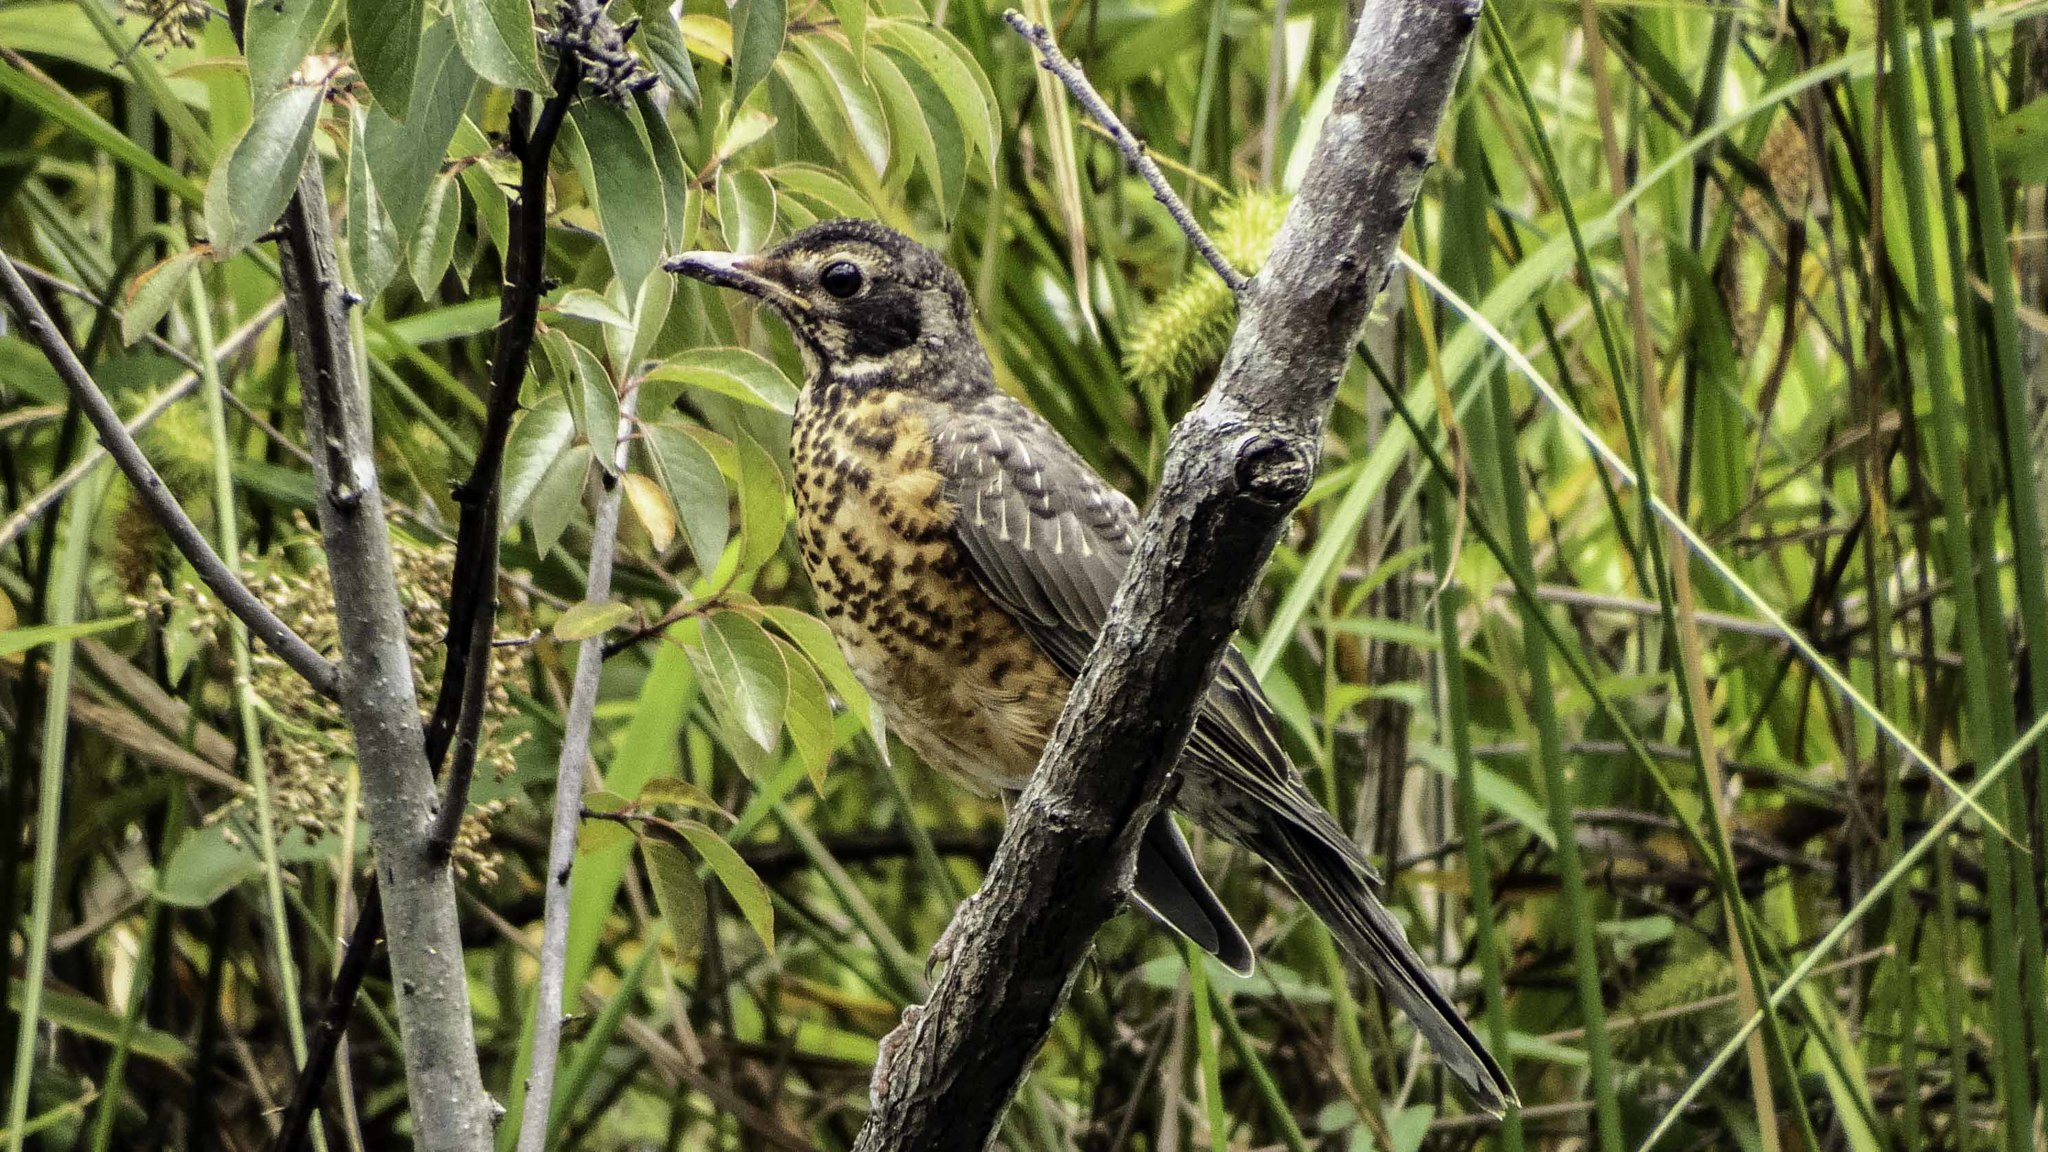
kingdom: Animalia
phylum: Chordata
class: Aves
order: Passeriformes
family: Turdidae
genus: Turdus
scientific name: Turdus migratorius
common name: American robin
